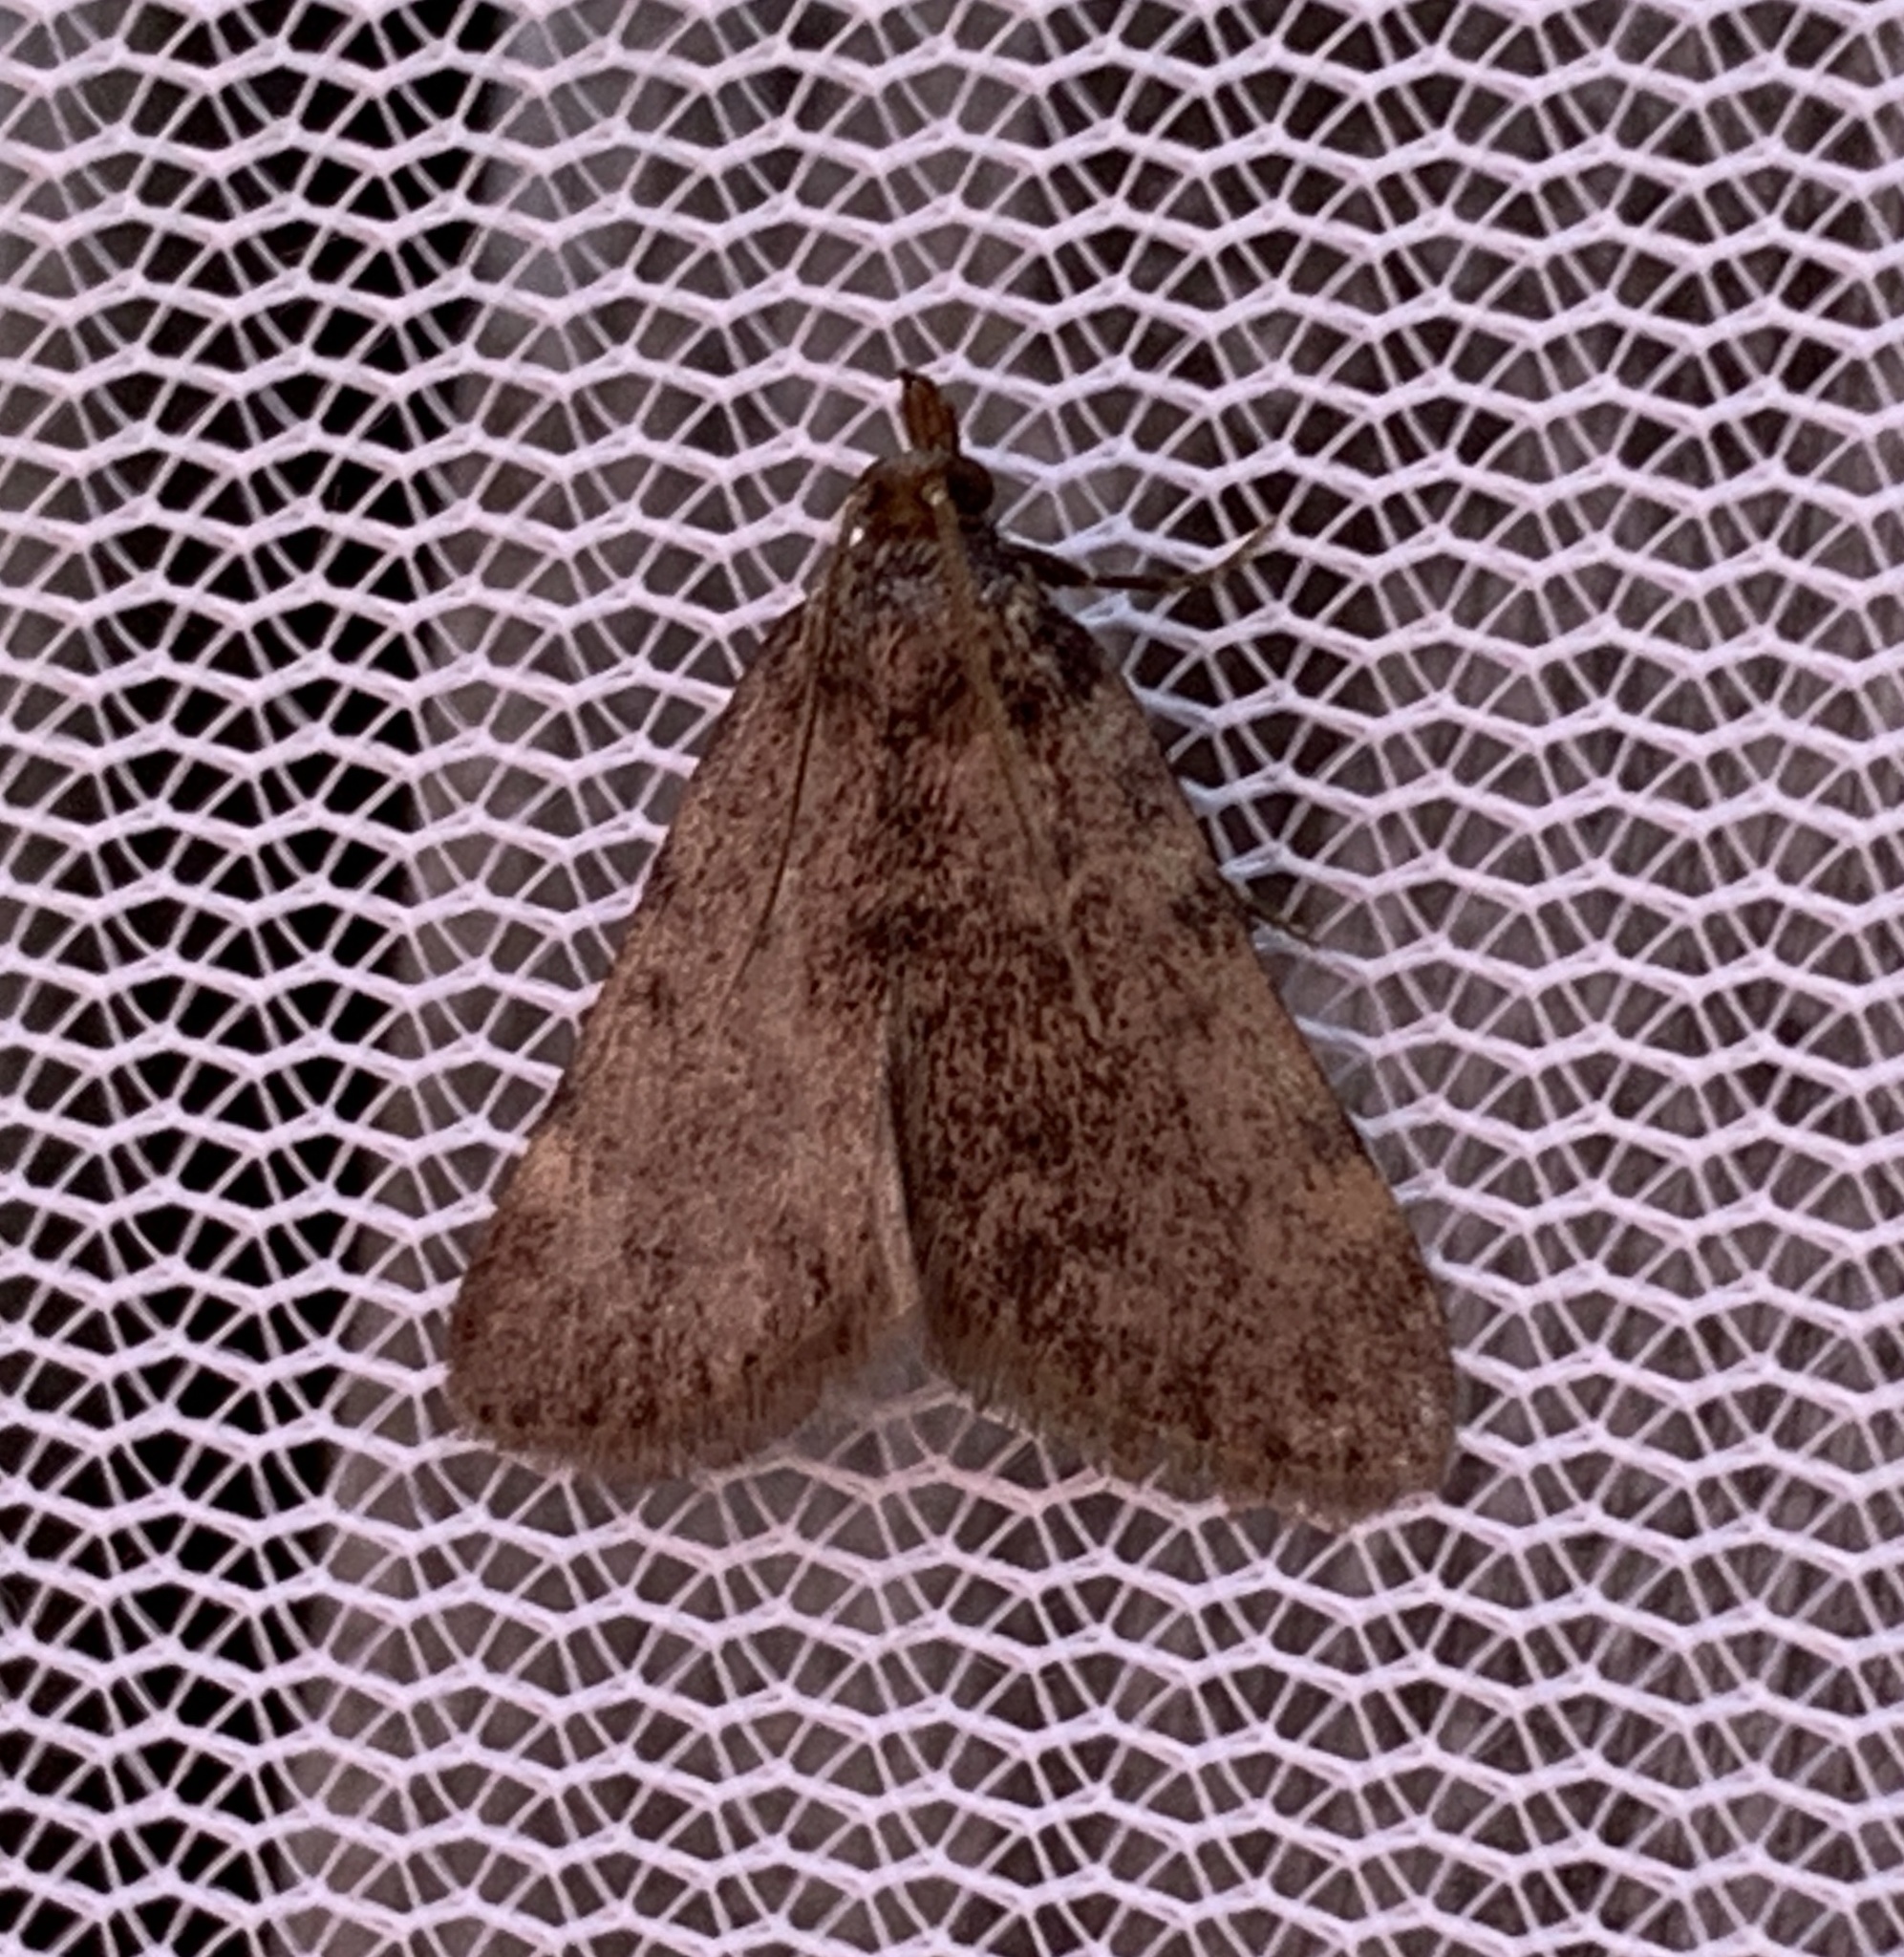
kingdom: Animalia
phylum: Arthropoda
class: Insecta
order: Lepidoptera
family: Pyralidae
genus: Aglossa
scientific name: Aglossa pinguinalis
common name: Large tabby
